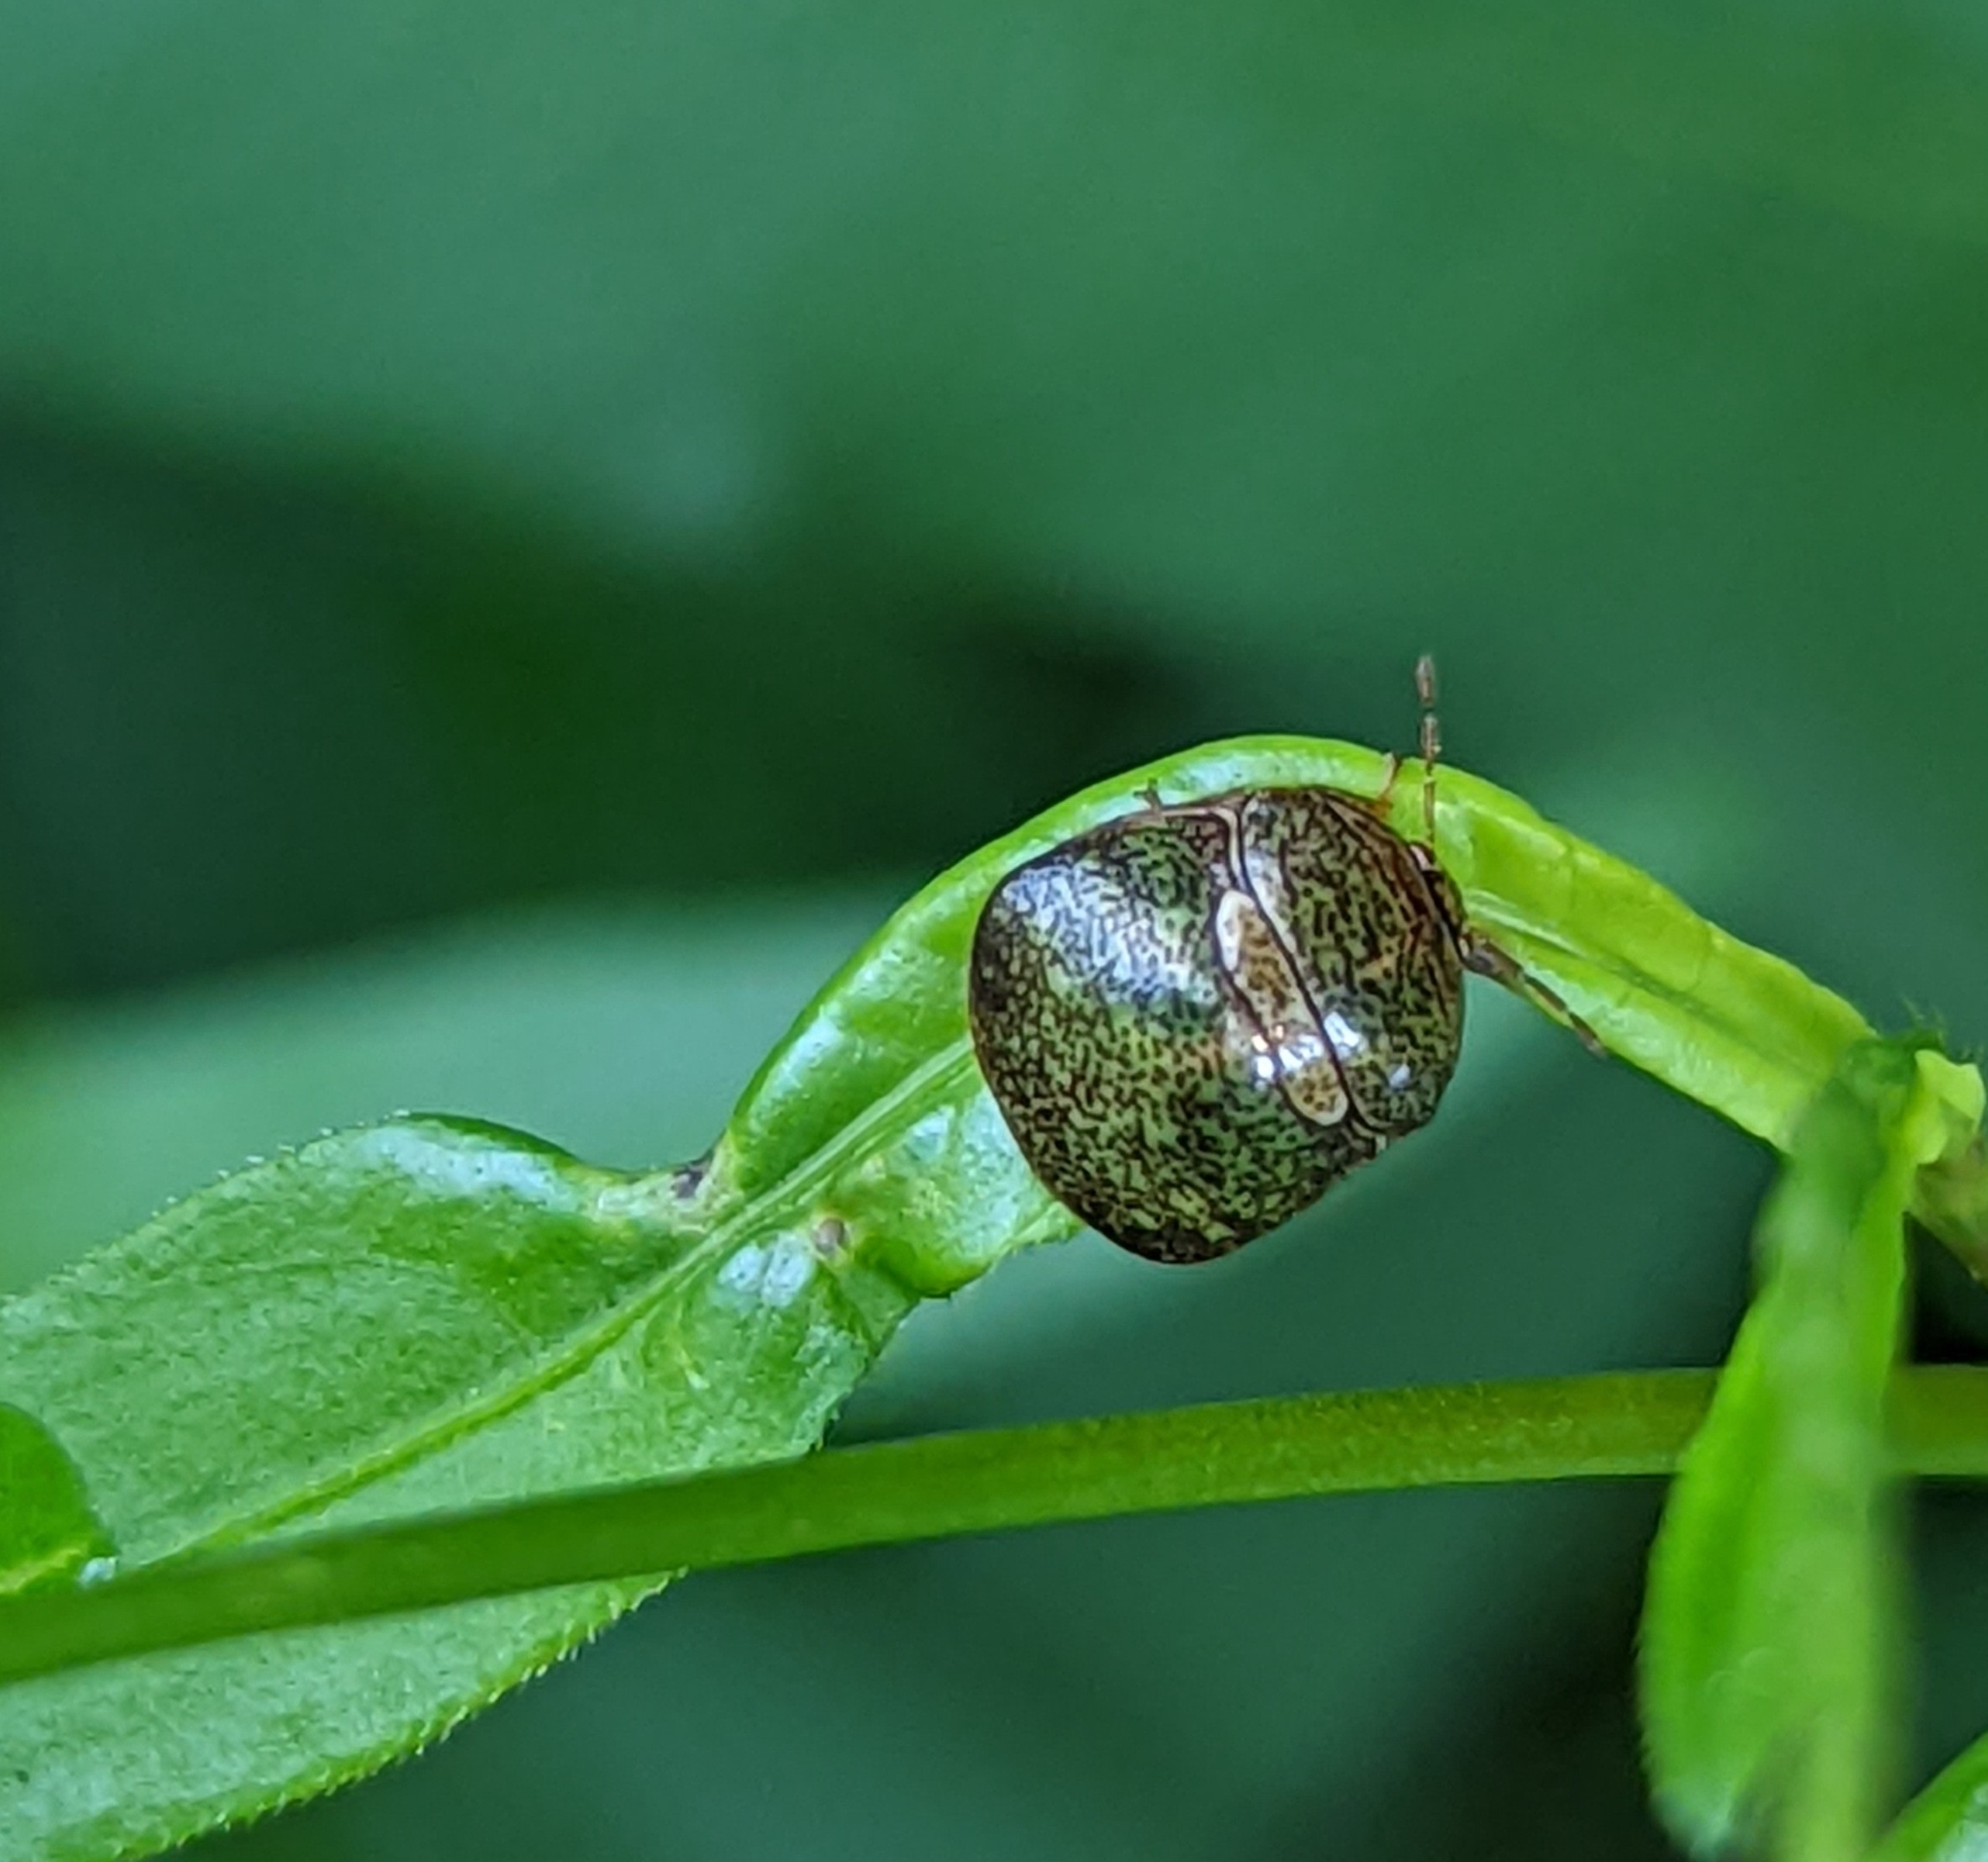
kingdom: Animalia
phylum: Arthropoda
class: Insecta
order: Hemiptera
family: Plataspidae
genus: Megacopta
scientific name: Megacopta cribraria
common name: Bean plataspid
